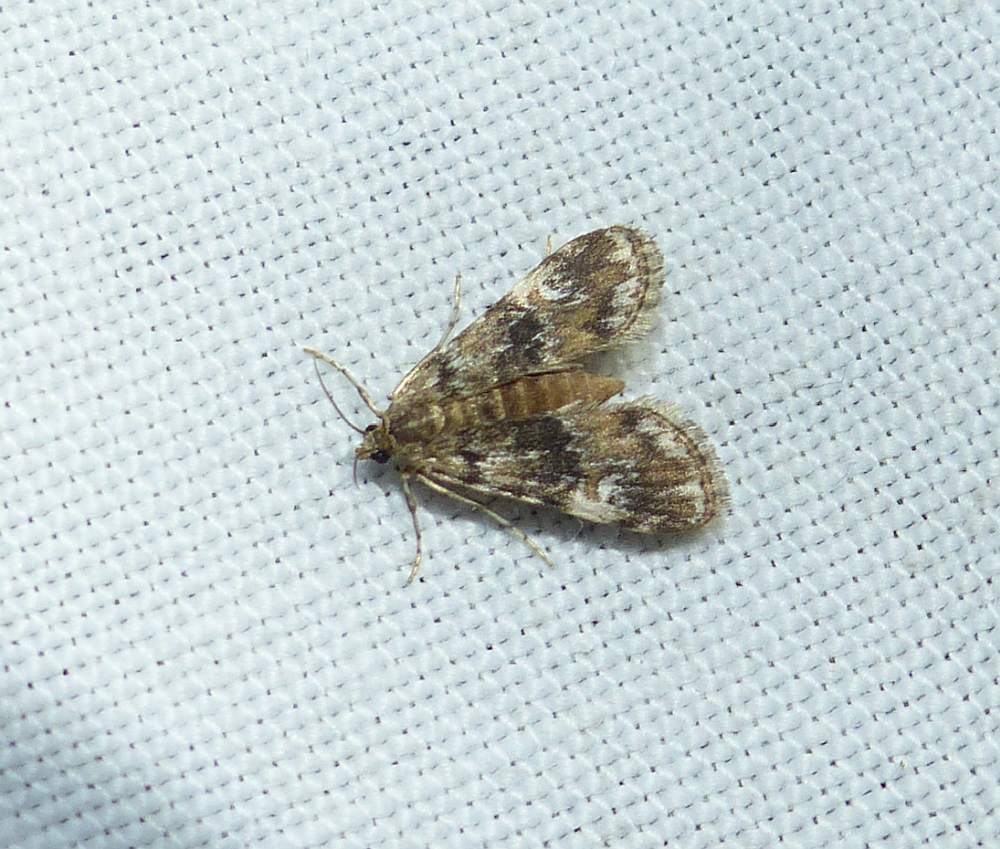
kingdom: Animalia
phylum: Arthropoda
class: Insecta
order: Lepidoptera
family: Crambidae
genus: Elophila
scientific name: Elophila obliteralis
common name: Waterlily leafcutter moth
